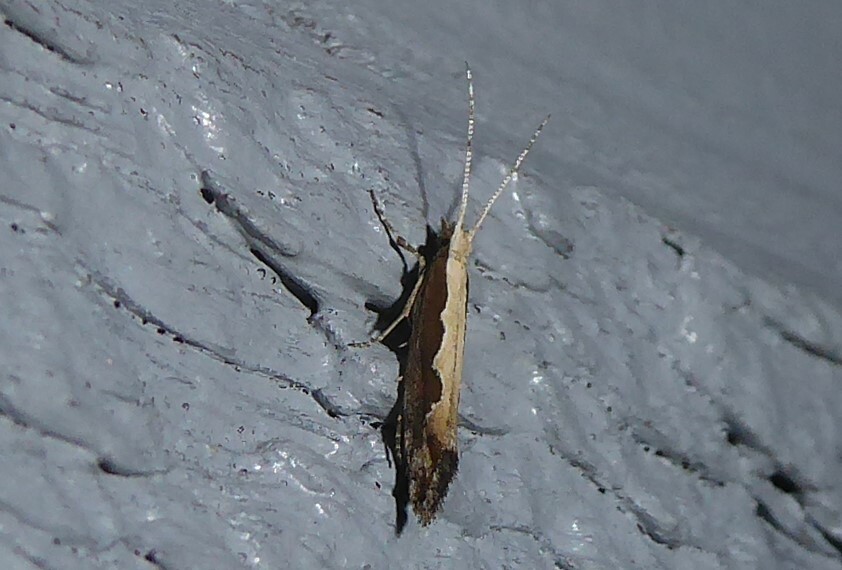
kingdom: Animalia
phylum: Arthropoda
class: Insecta
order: Lepidoptera
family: Plutellidae
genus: Plutella
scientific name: Plutella xylostella
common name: Diamond-back moth
